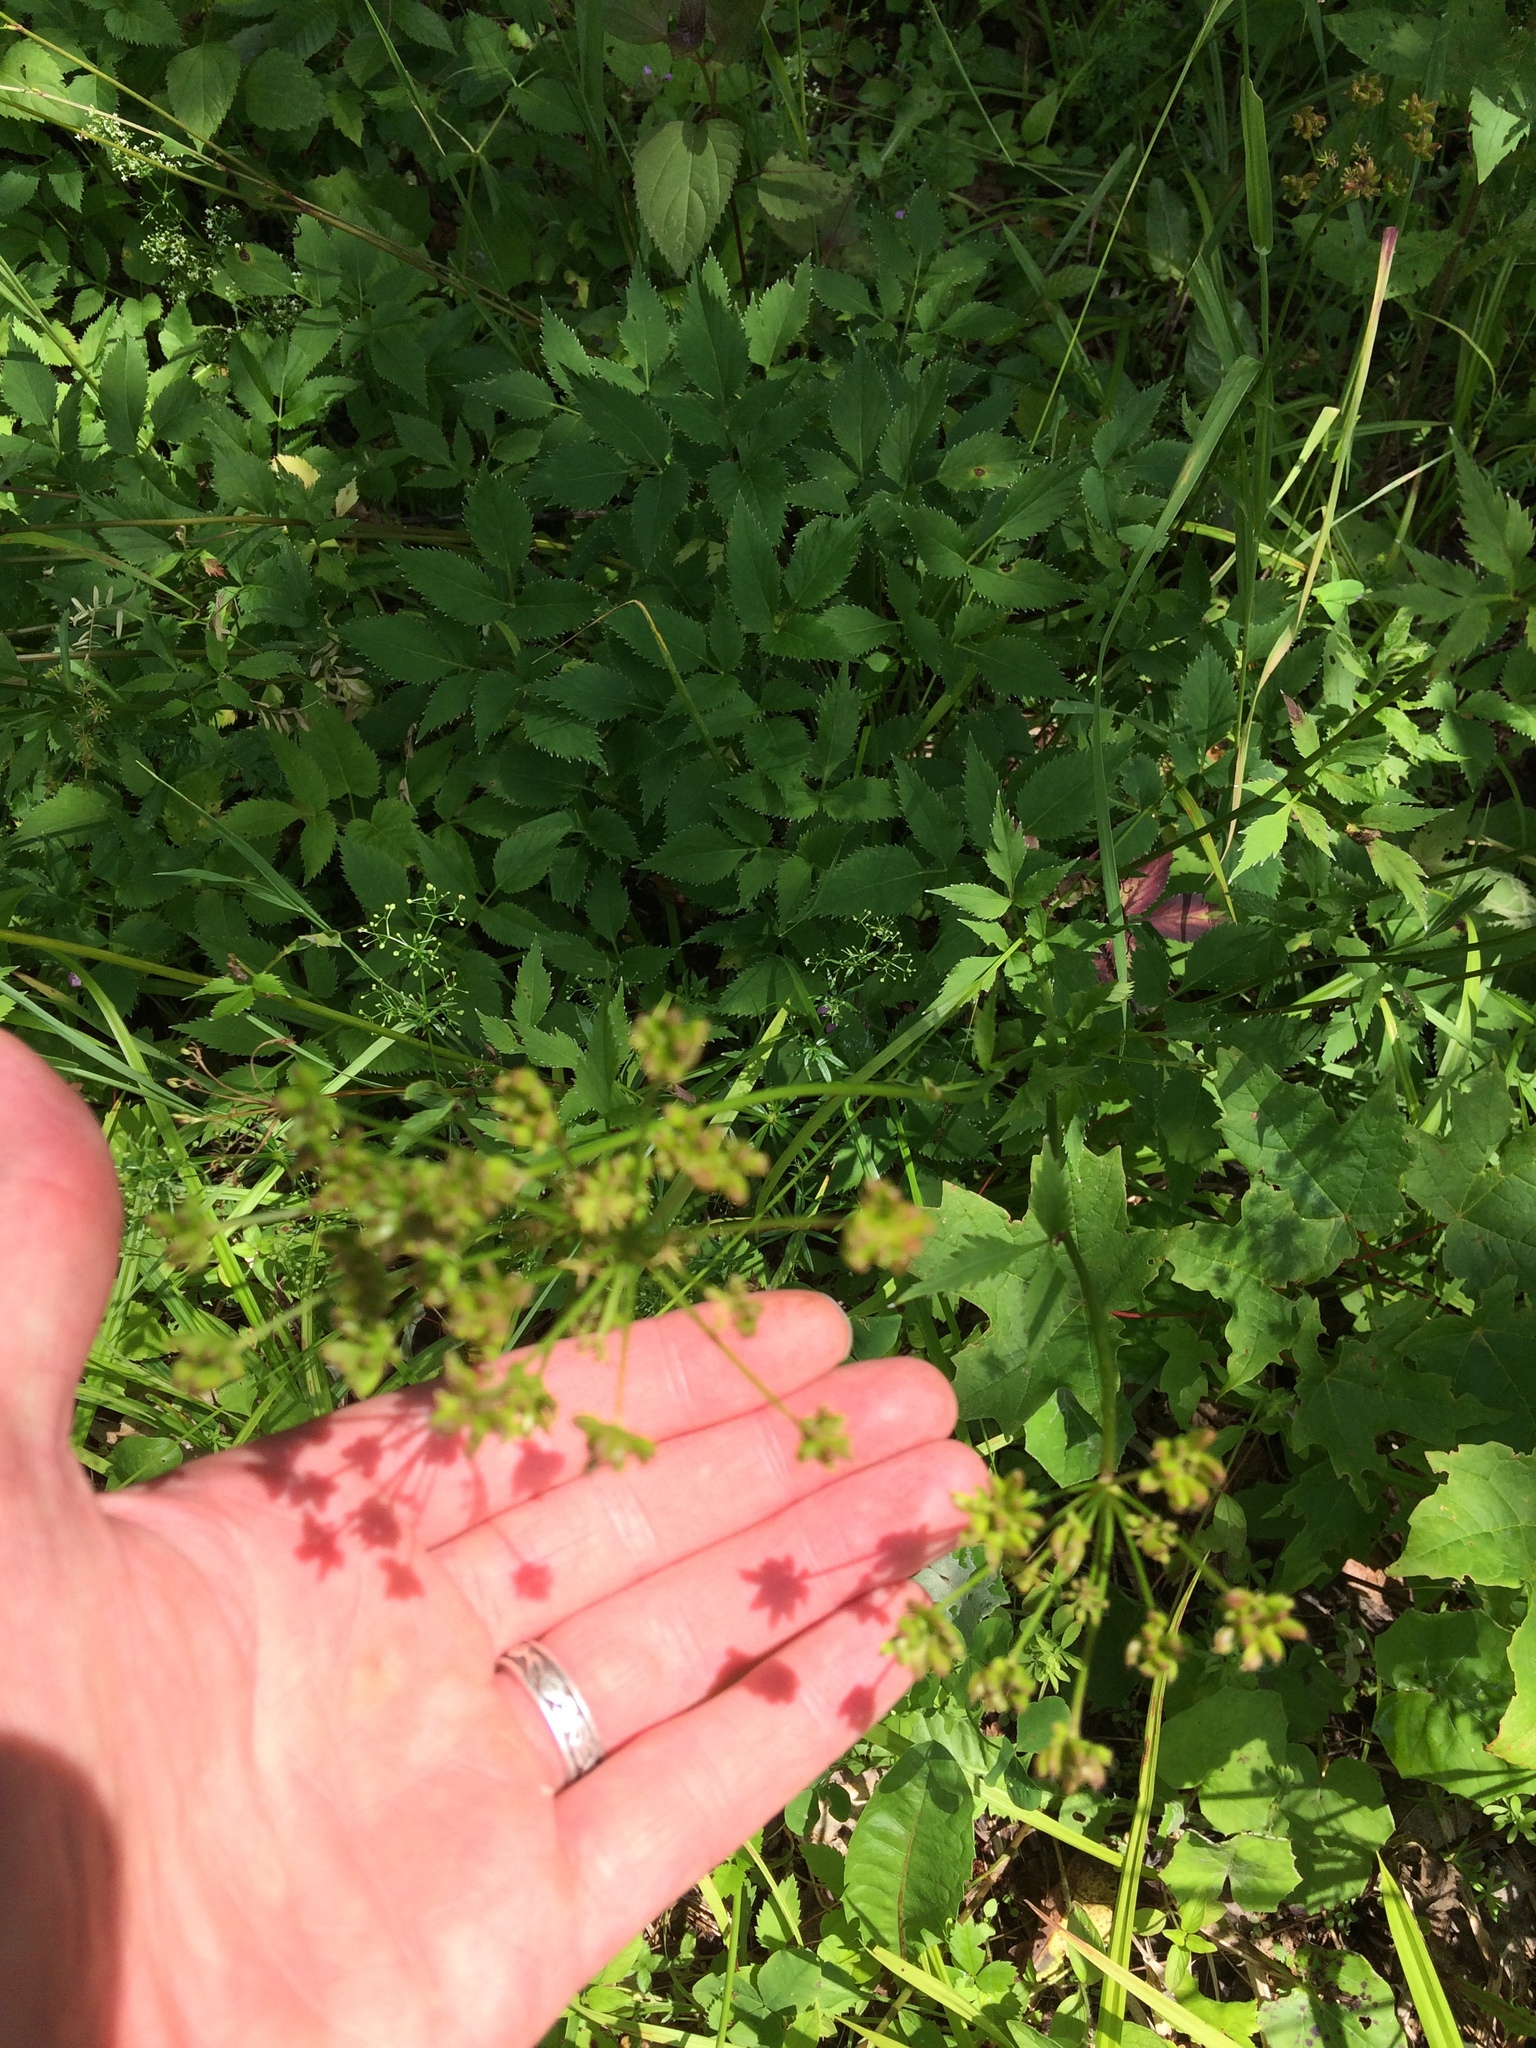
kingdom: Plantae
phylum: Tracheophyta
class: Magnoliopsida
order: Apiales
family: Apiaceae
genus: Zizia
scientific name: Zizia aurea
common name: Golden alexanders
